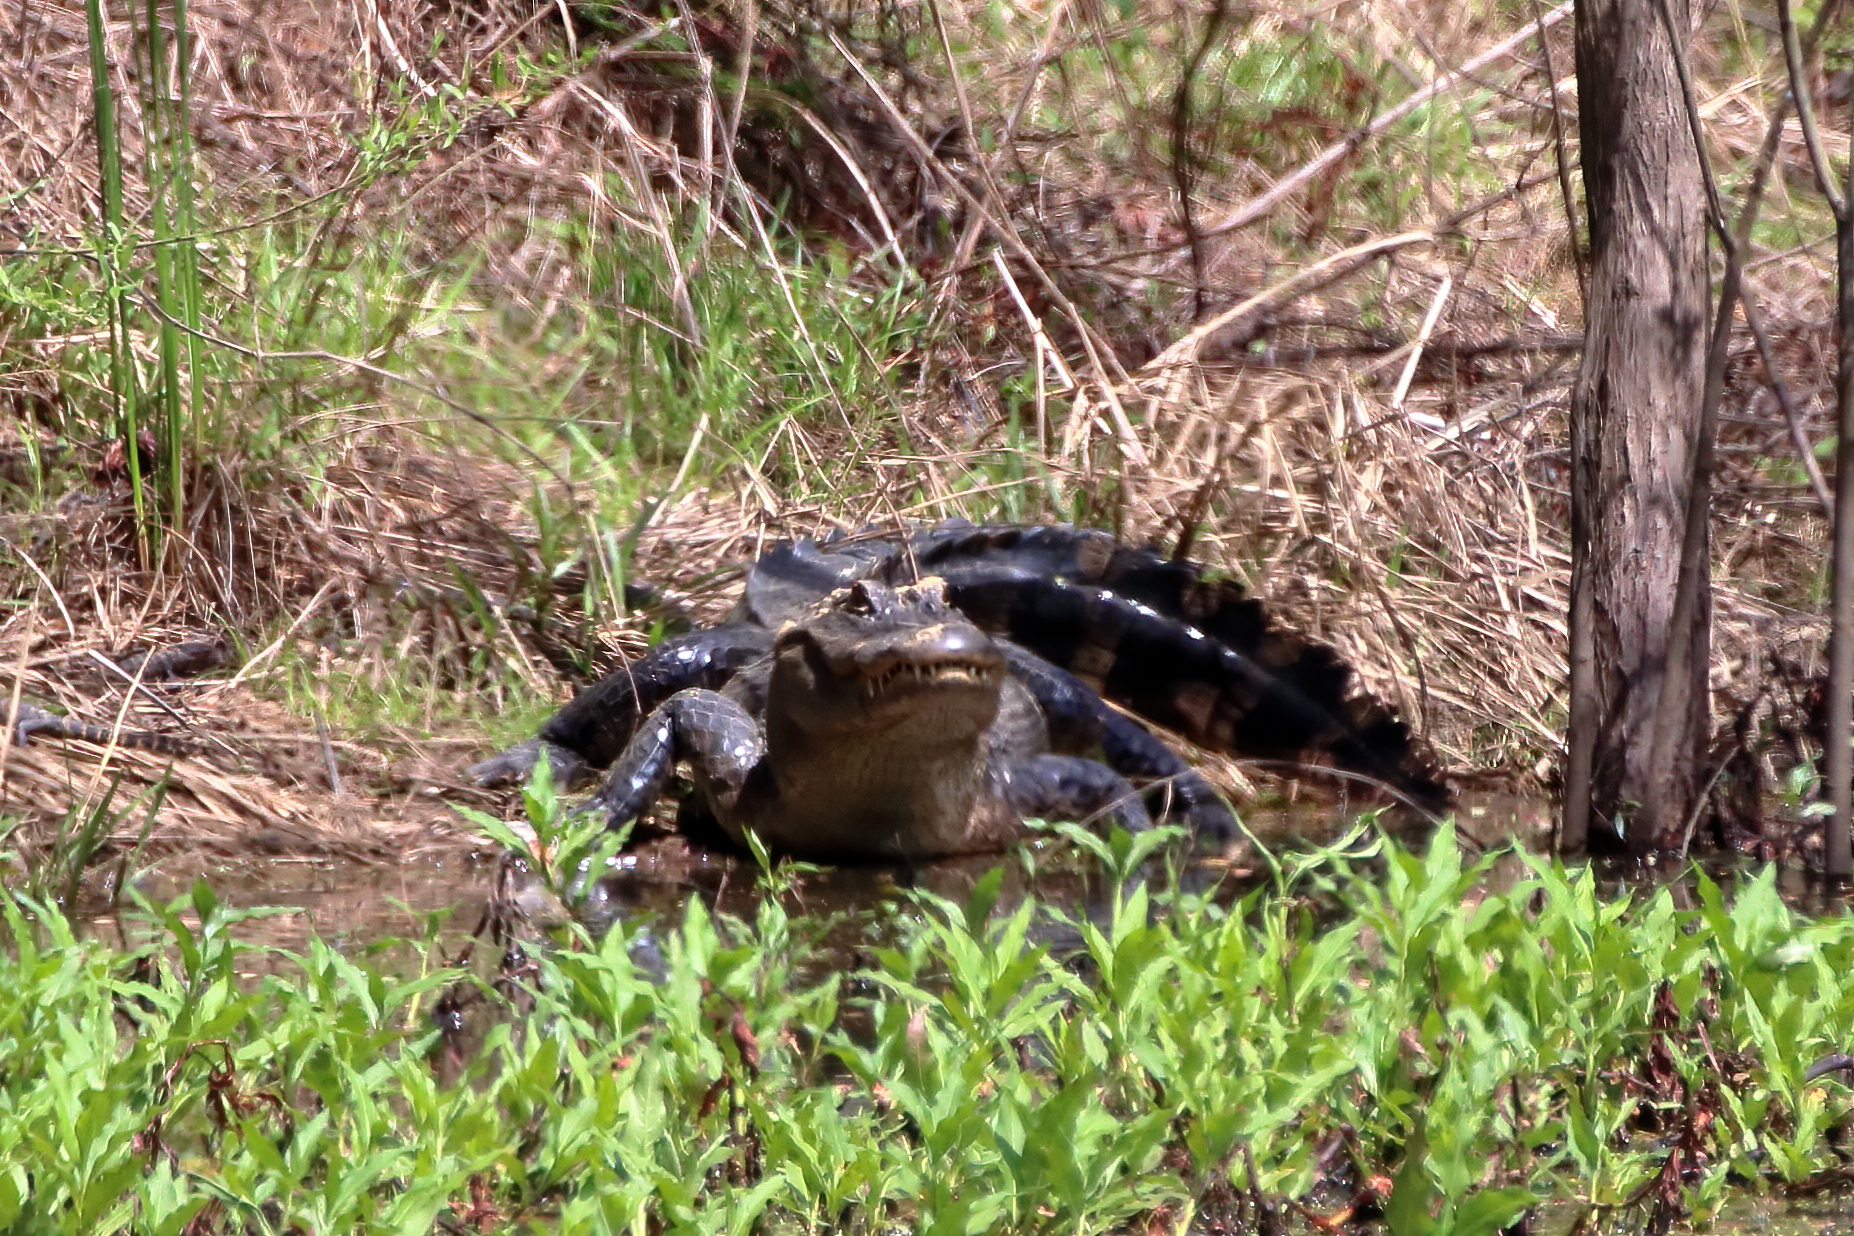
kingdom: Animalia
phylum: Chordata
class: Crocodylia
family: Alligatoridae
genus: Alligator
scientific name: Alligator mississippiensis
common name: American alligator
